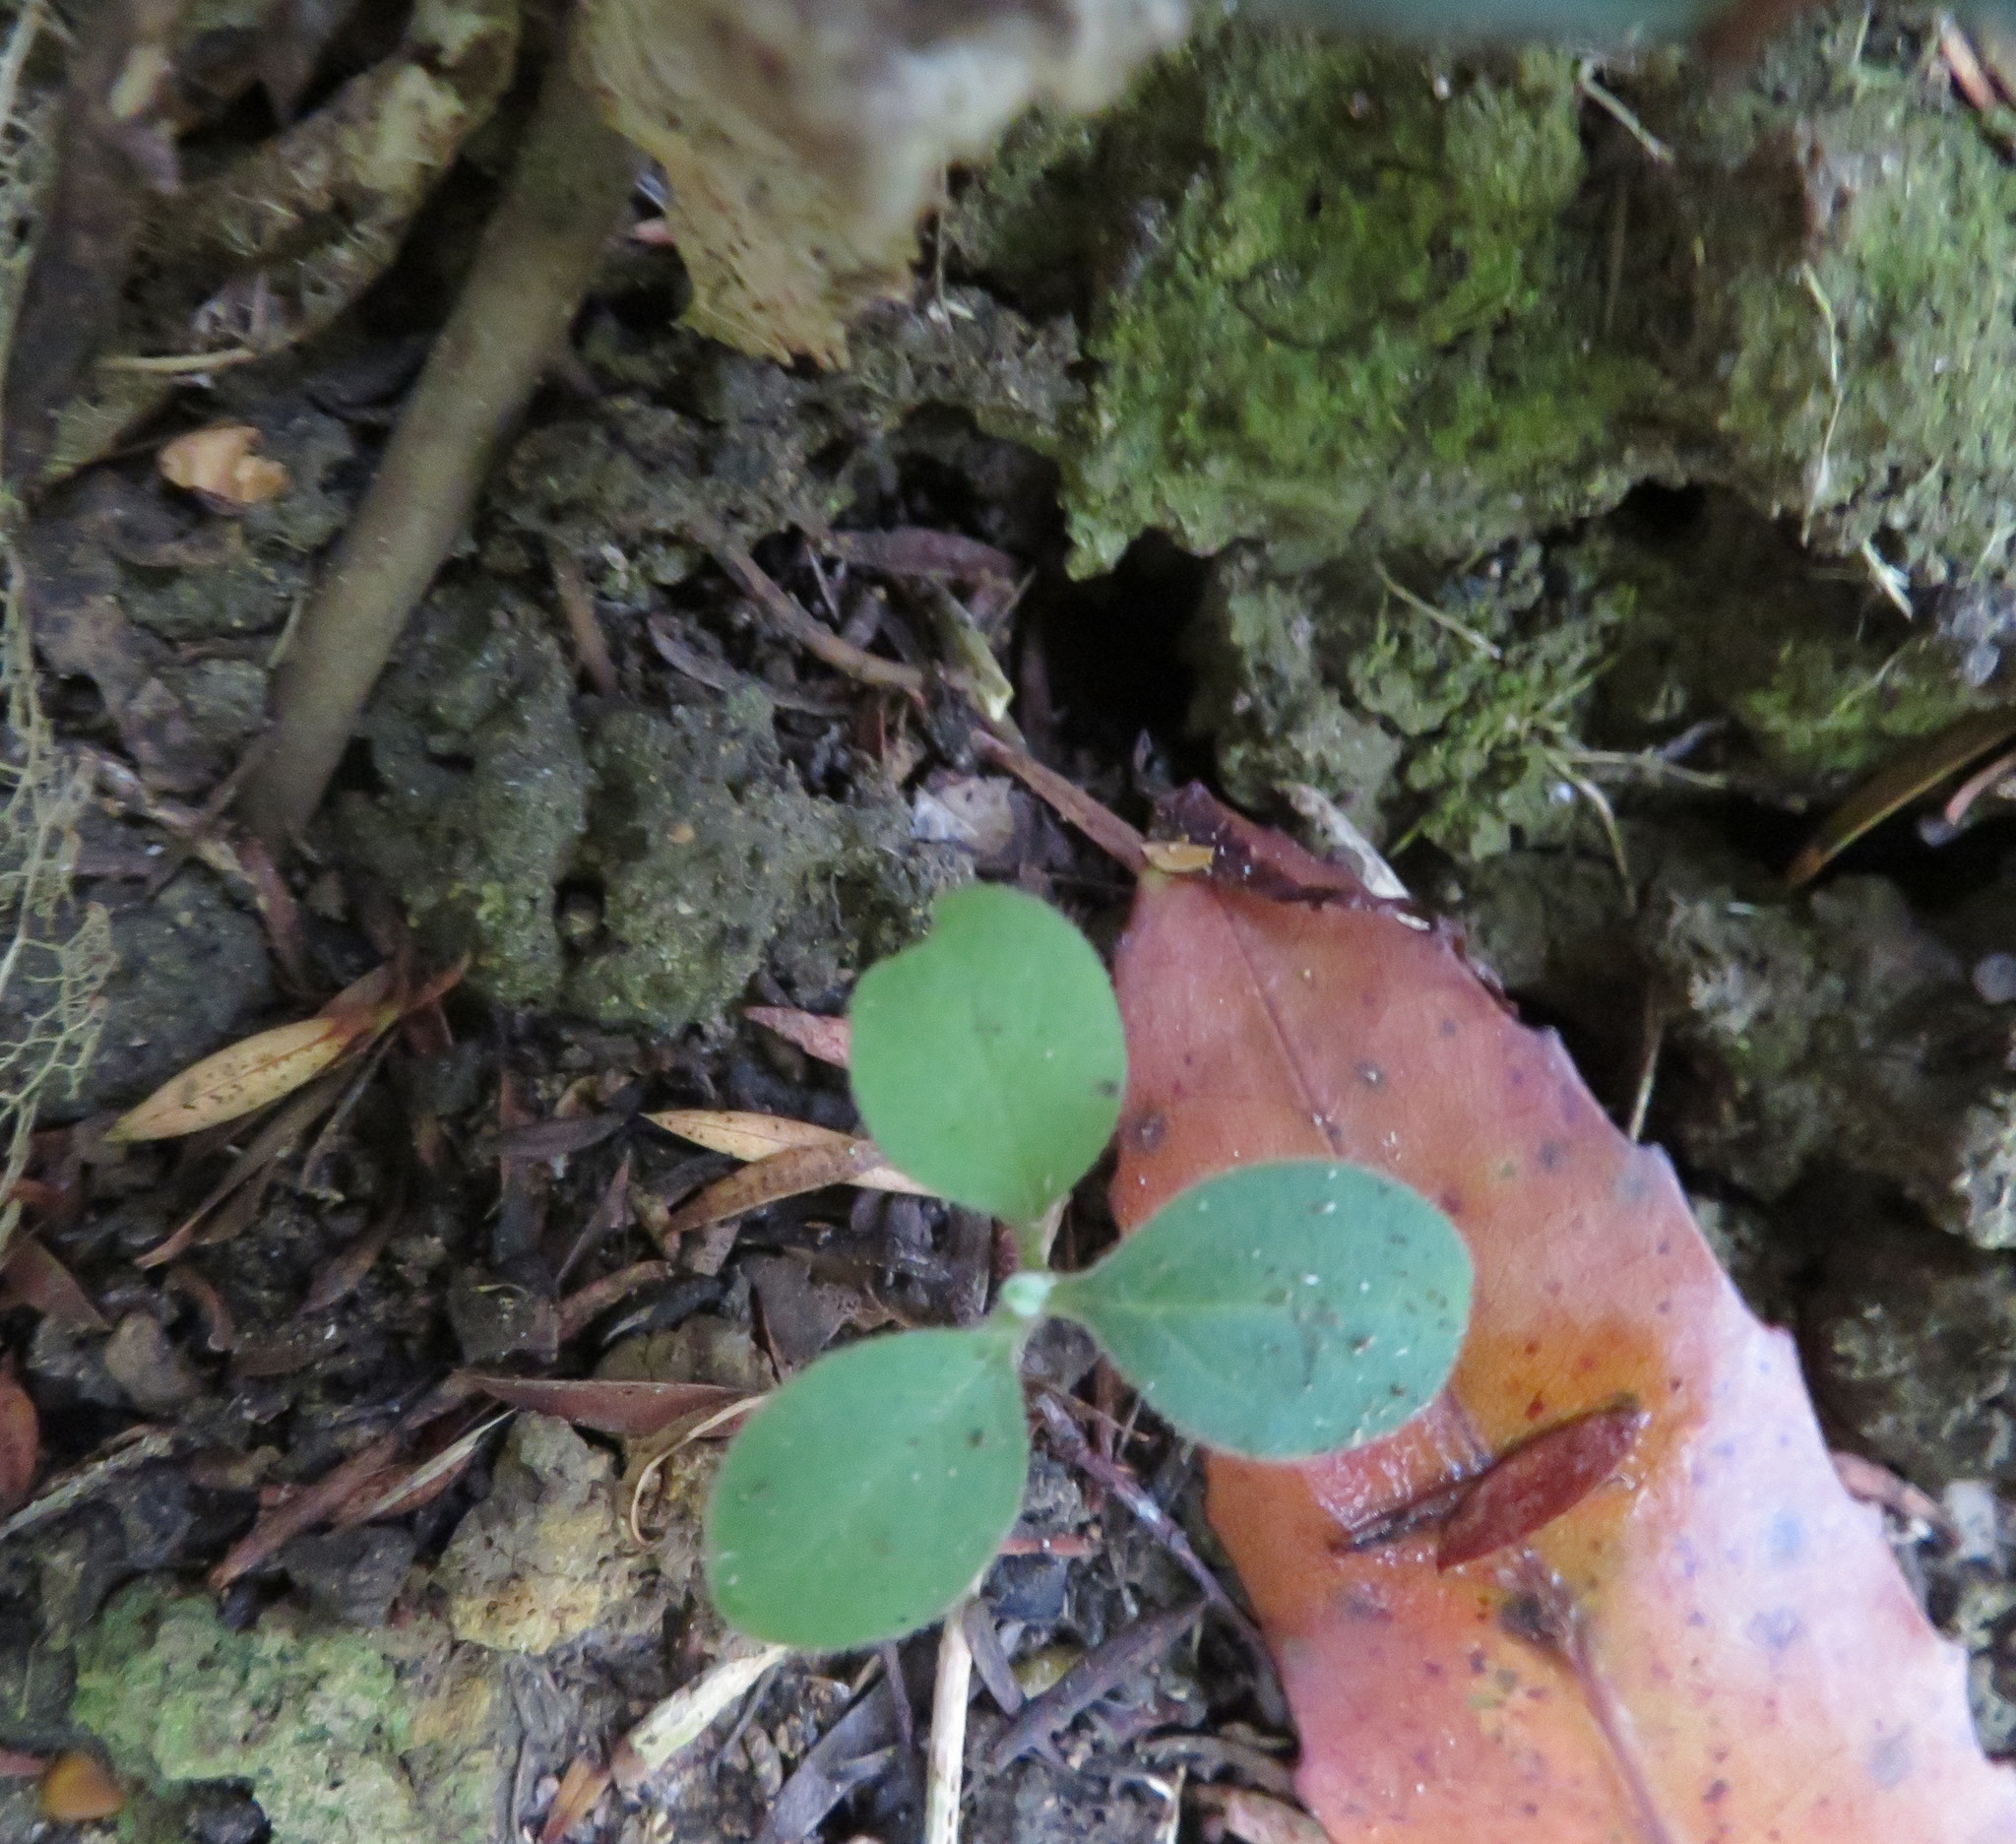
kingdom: Plantae
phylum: Tracheophyta
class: Magnoliopsida
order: Solanales
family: Solanaceae
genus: Solanum
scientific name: Solanum mauritianum
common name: Earleaf nightshade
